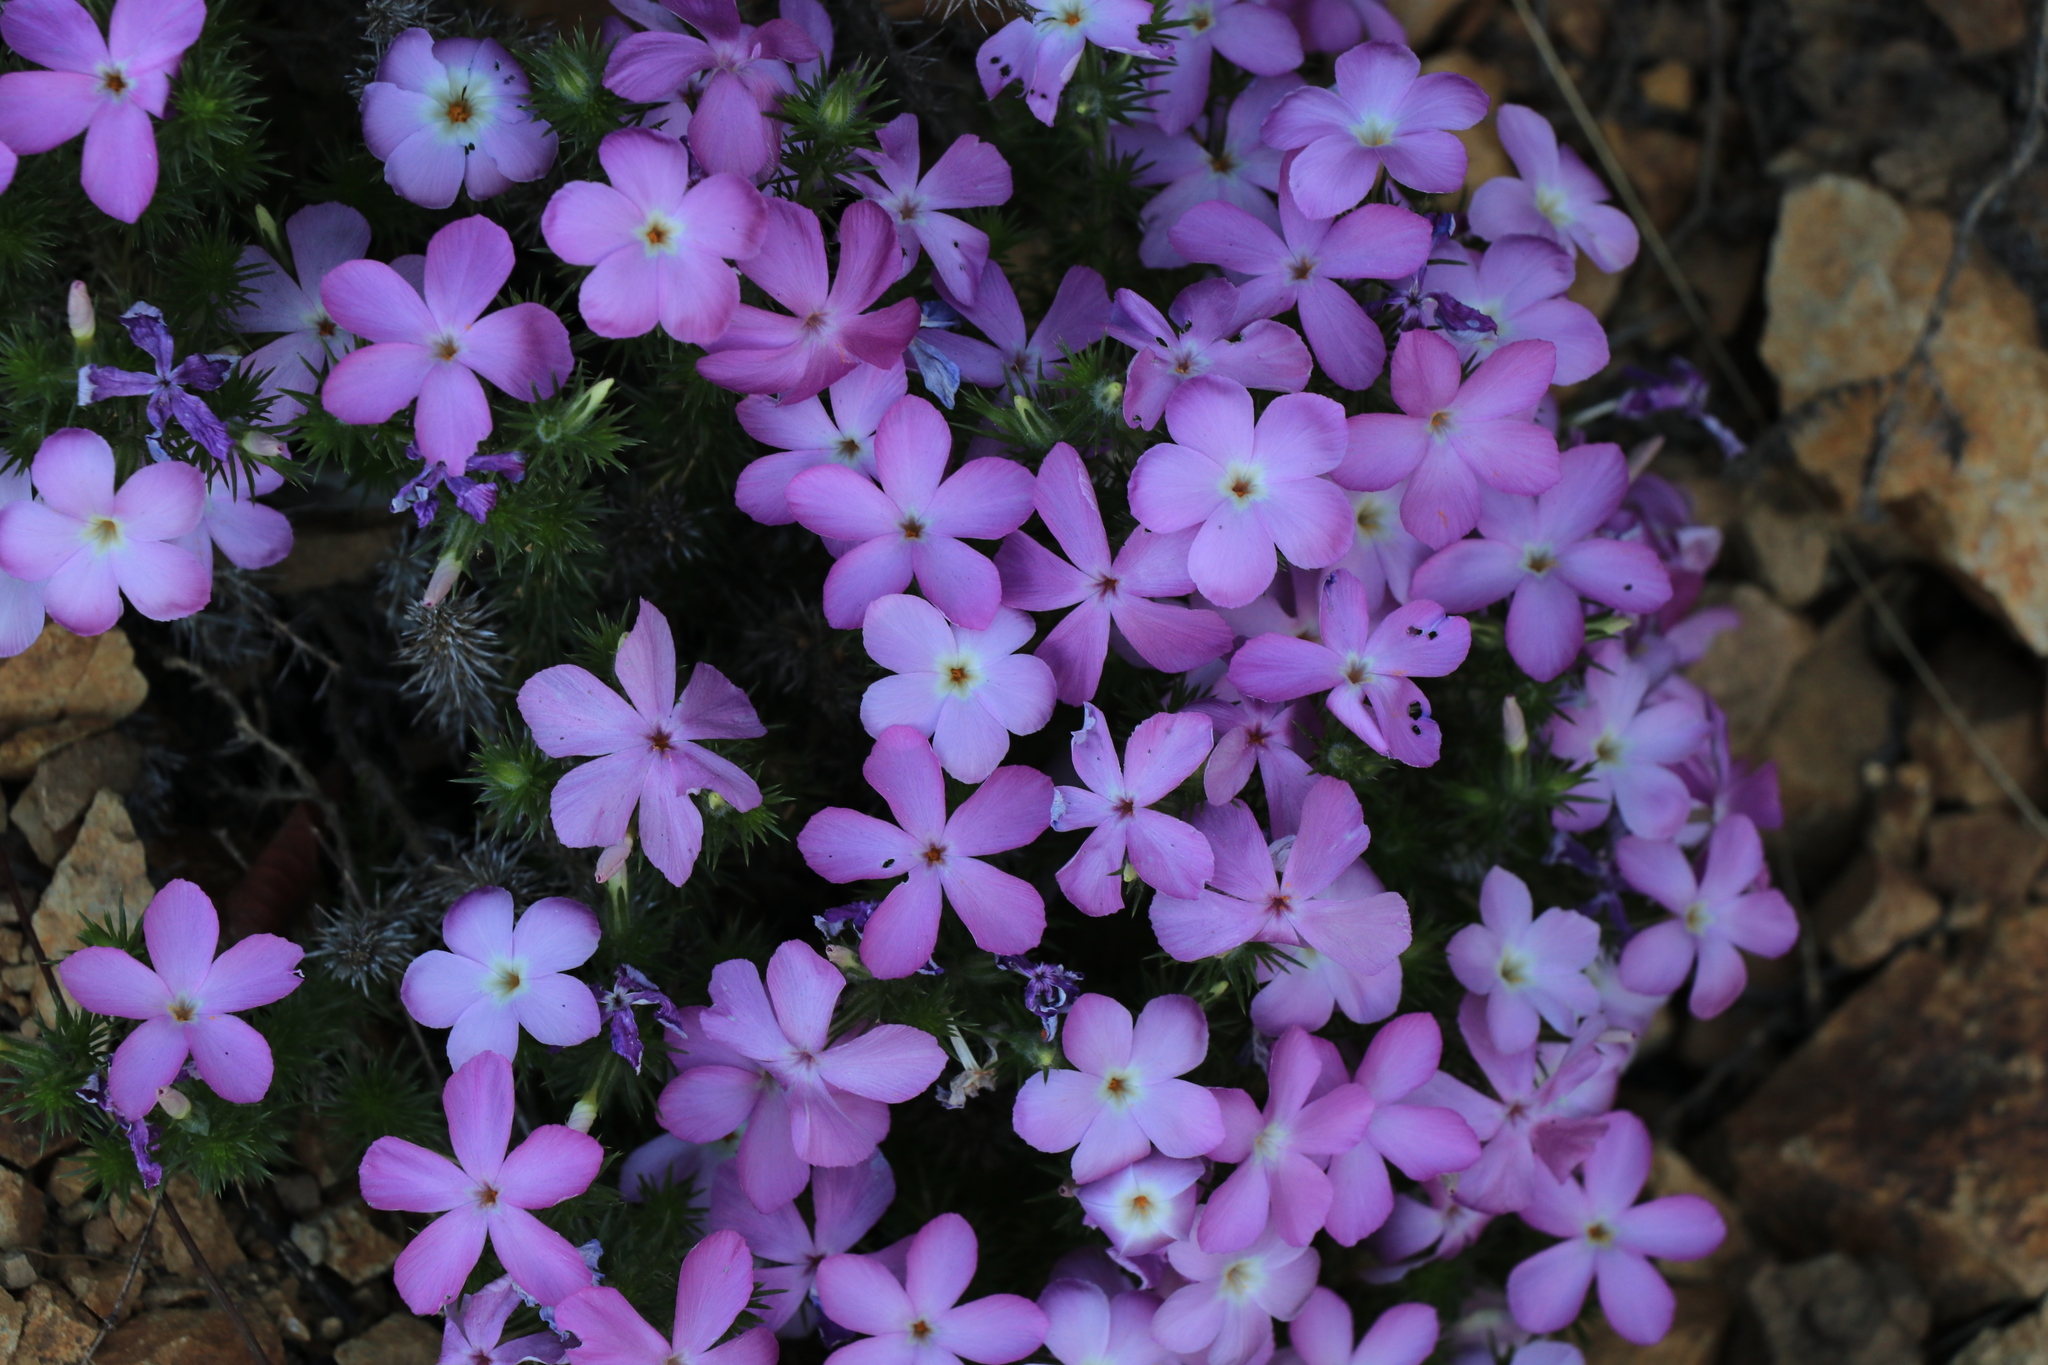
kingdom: Plantae
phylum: Tracheophyta
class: Magnoliopsida
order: Ericales
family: Polemoniaceae
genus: Linanthus
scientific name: Linanthus californicus
